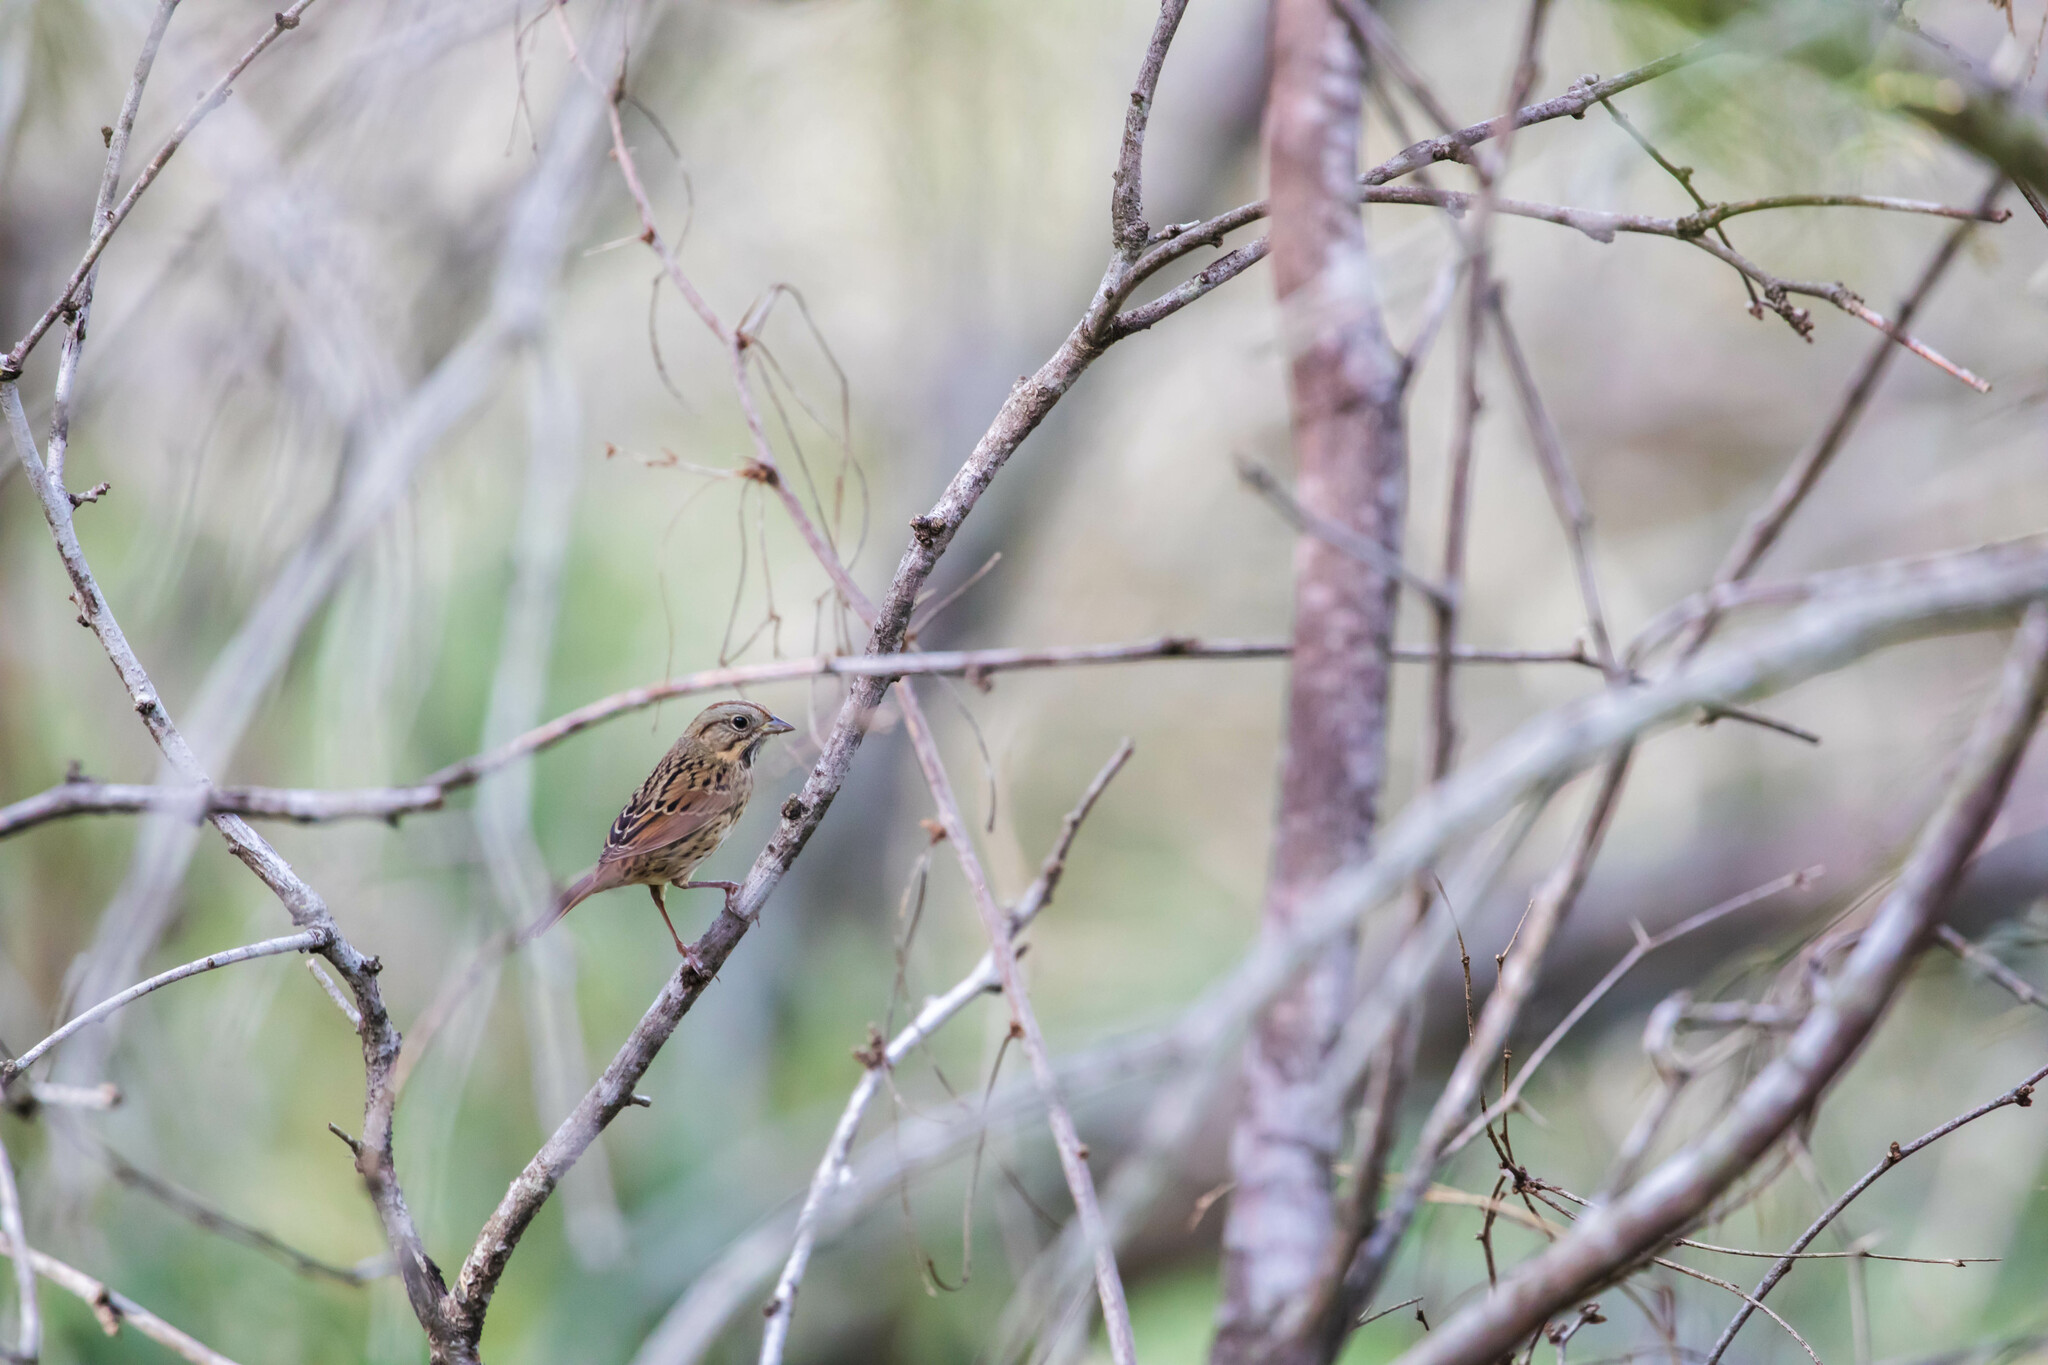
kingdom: Animalia
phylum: Chordata
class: Aves
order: Passeriformes
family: Passerellidae
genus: Melospiza
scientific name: Melospiza lincolnii
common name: Lincoln's sparrow
